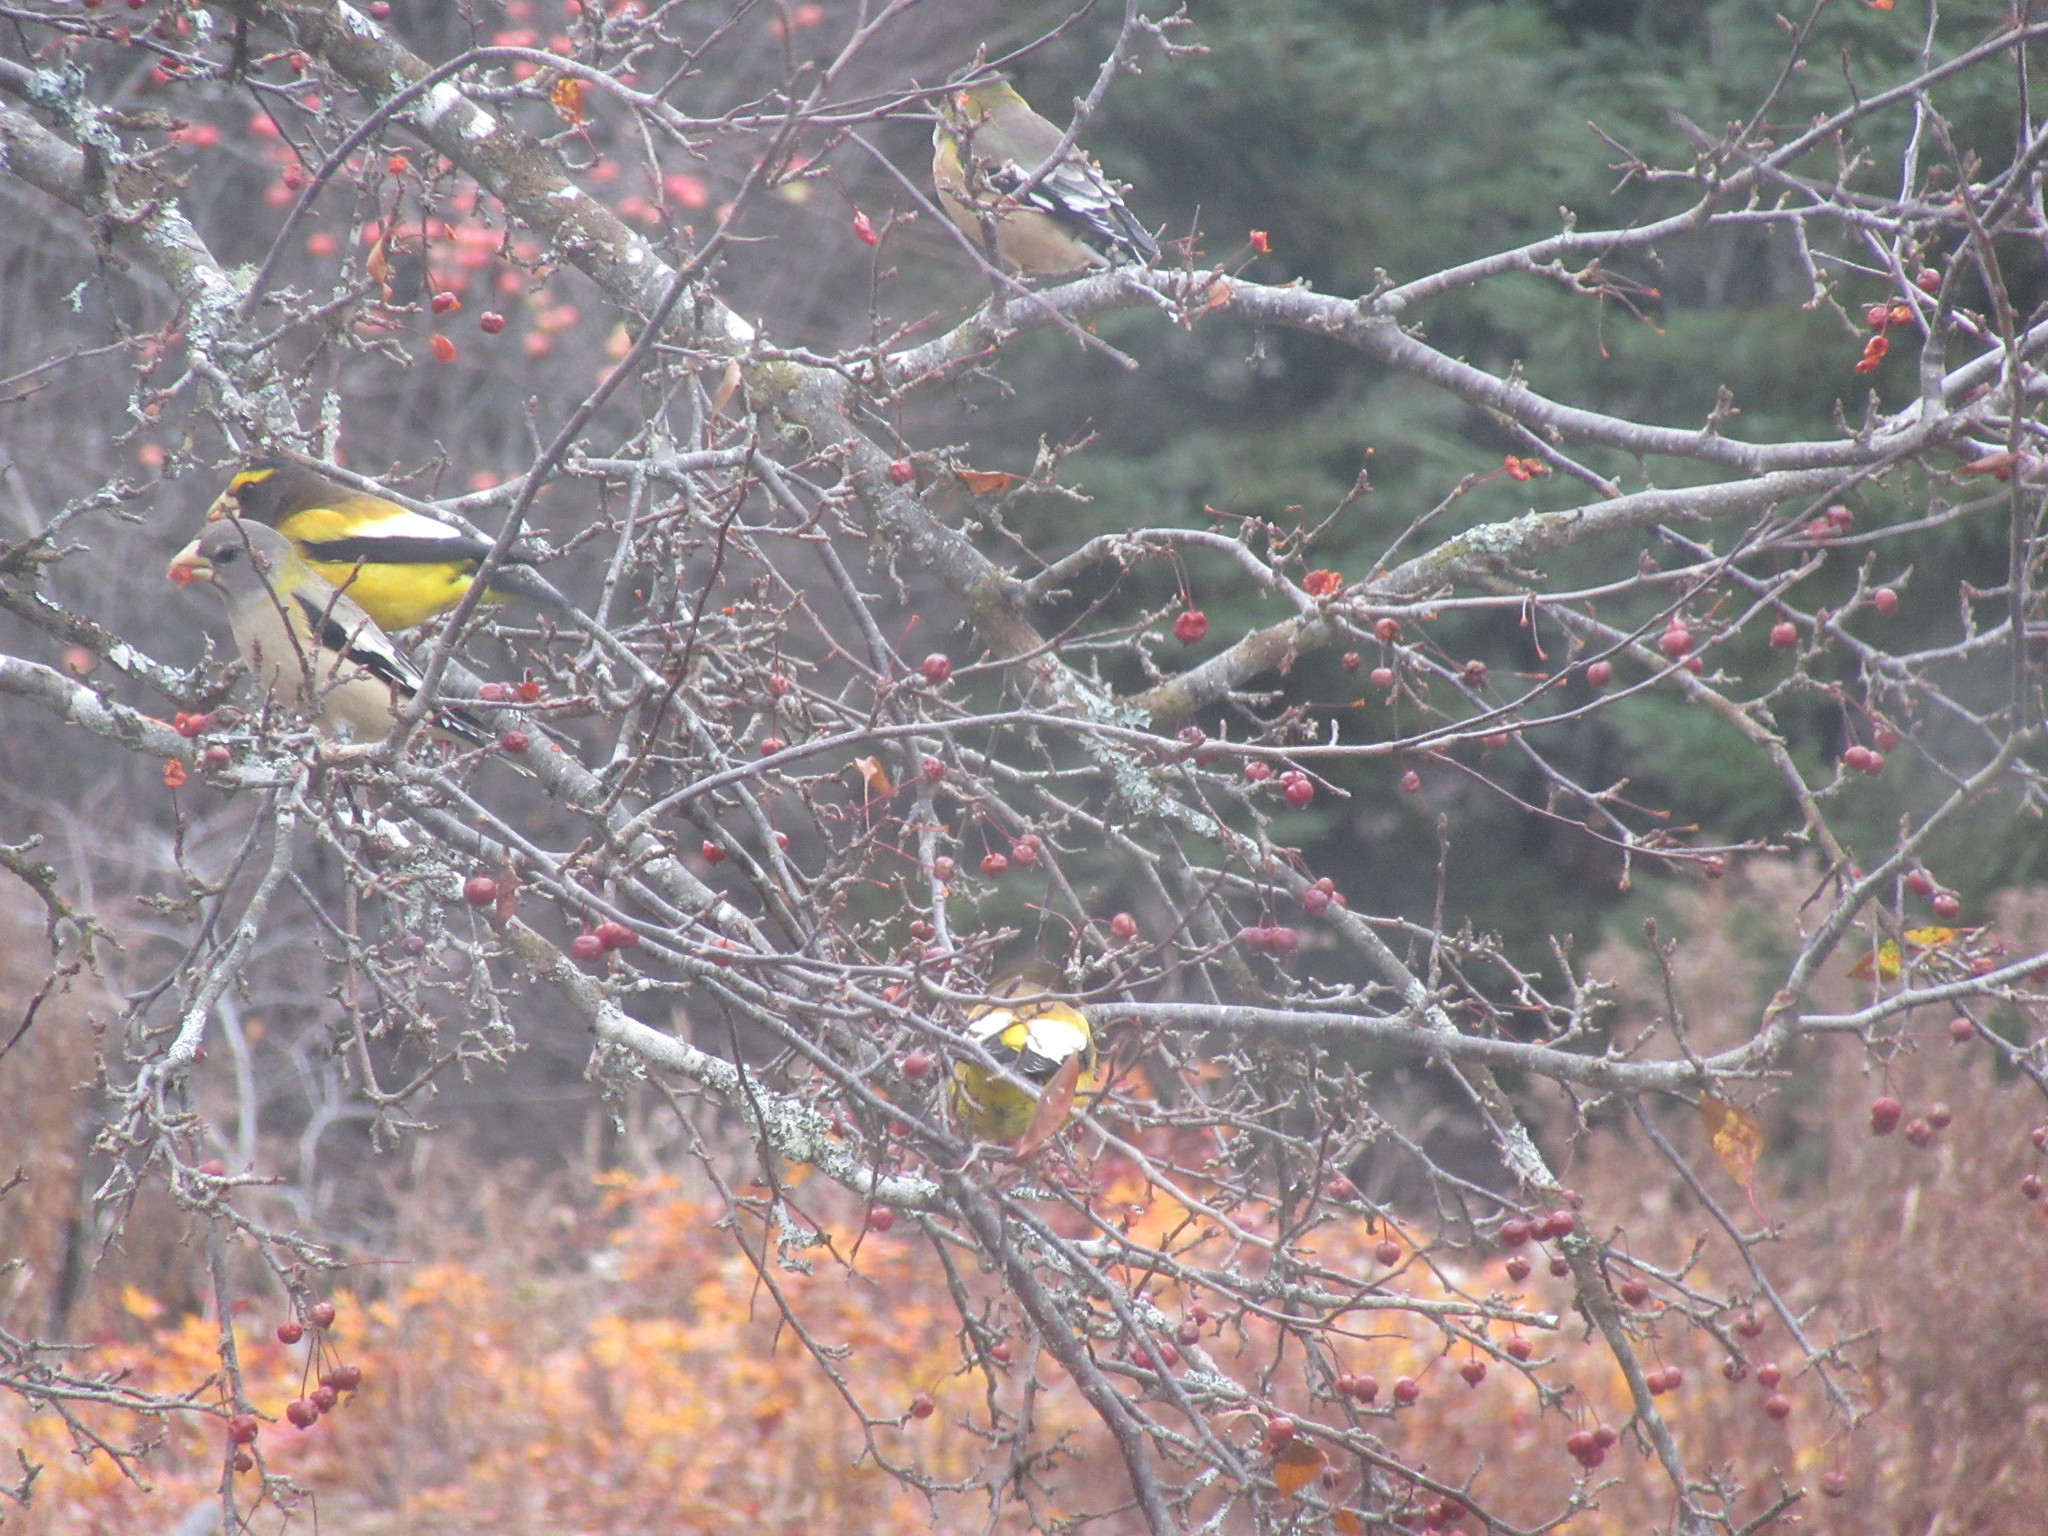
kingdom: Animalia
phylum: Chordata
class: Aves
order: Passeriformes
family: Fringillidae
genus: Hesperiphona
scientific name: Hesperiphona vespertina
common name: Evening grosbeak
